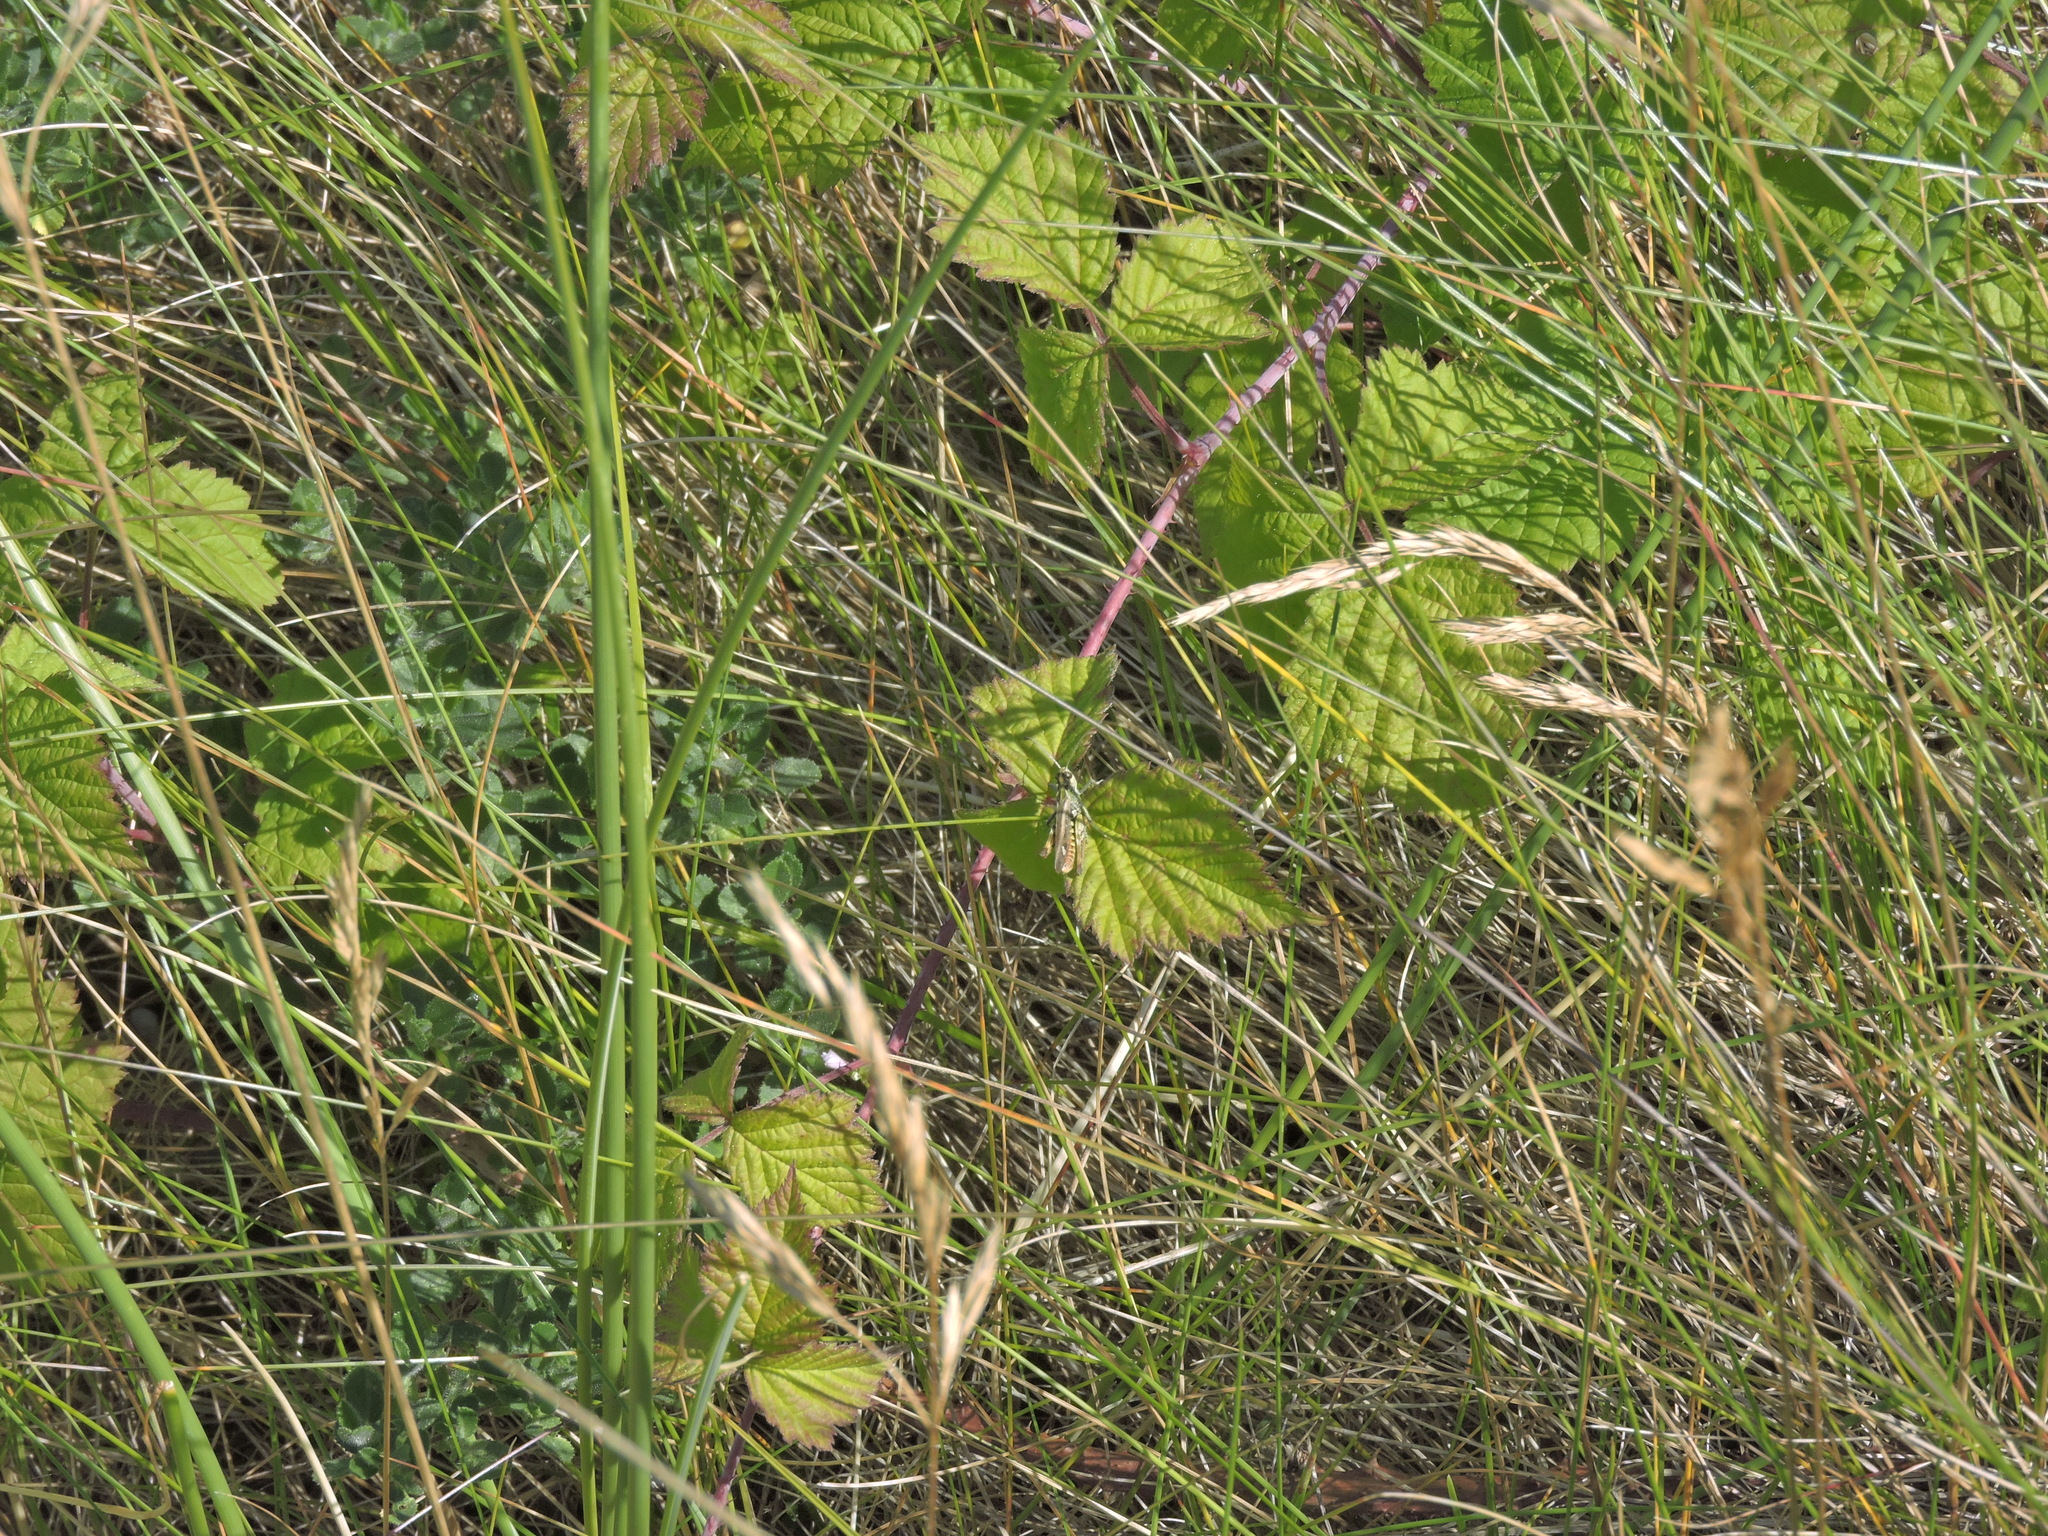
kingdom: Animalia
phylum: Arthropoda
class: Insecta
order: Orthoptera
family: Acrididae
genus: Myrmeleotettix
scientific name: Myrmeleotettix maculatus
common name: Mottled grasshopper
